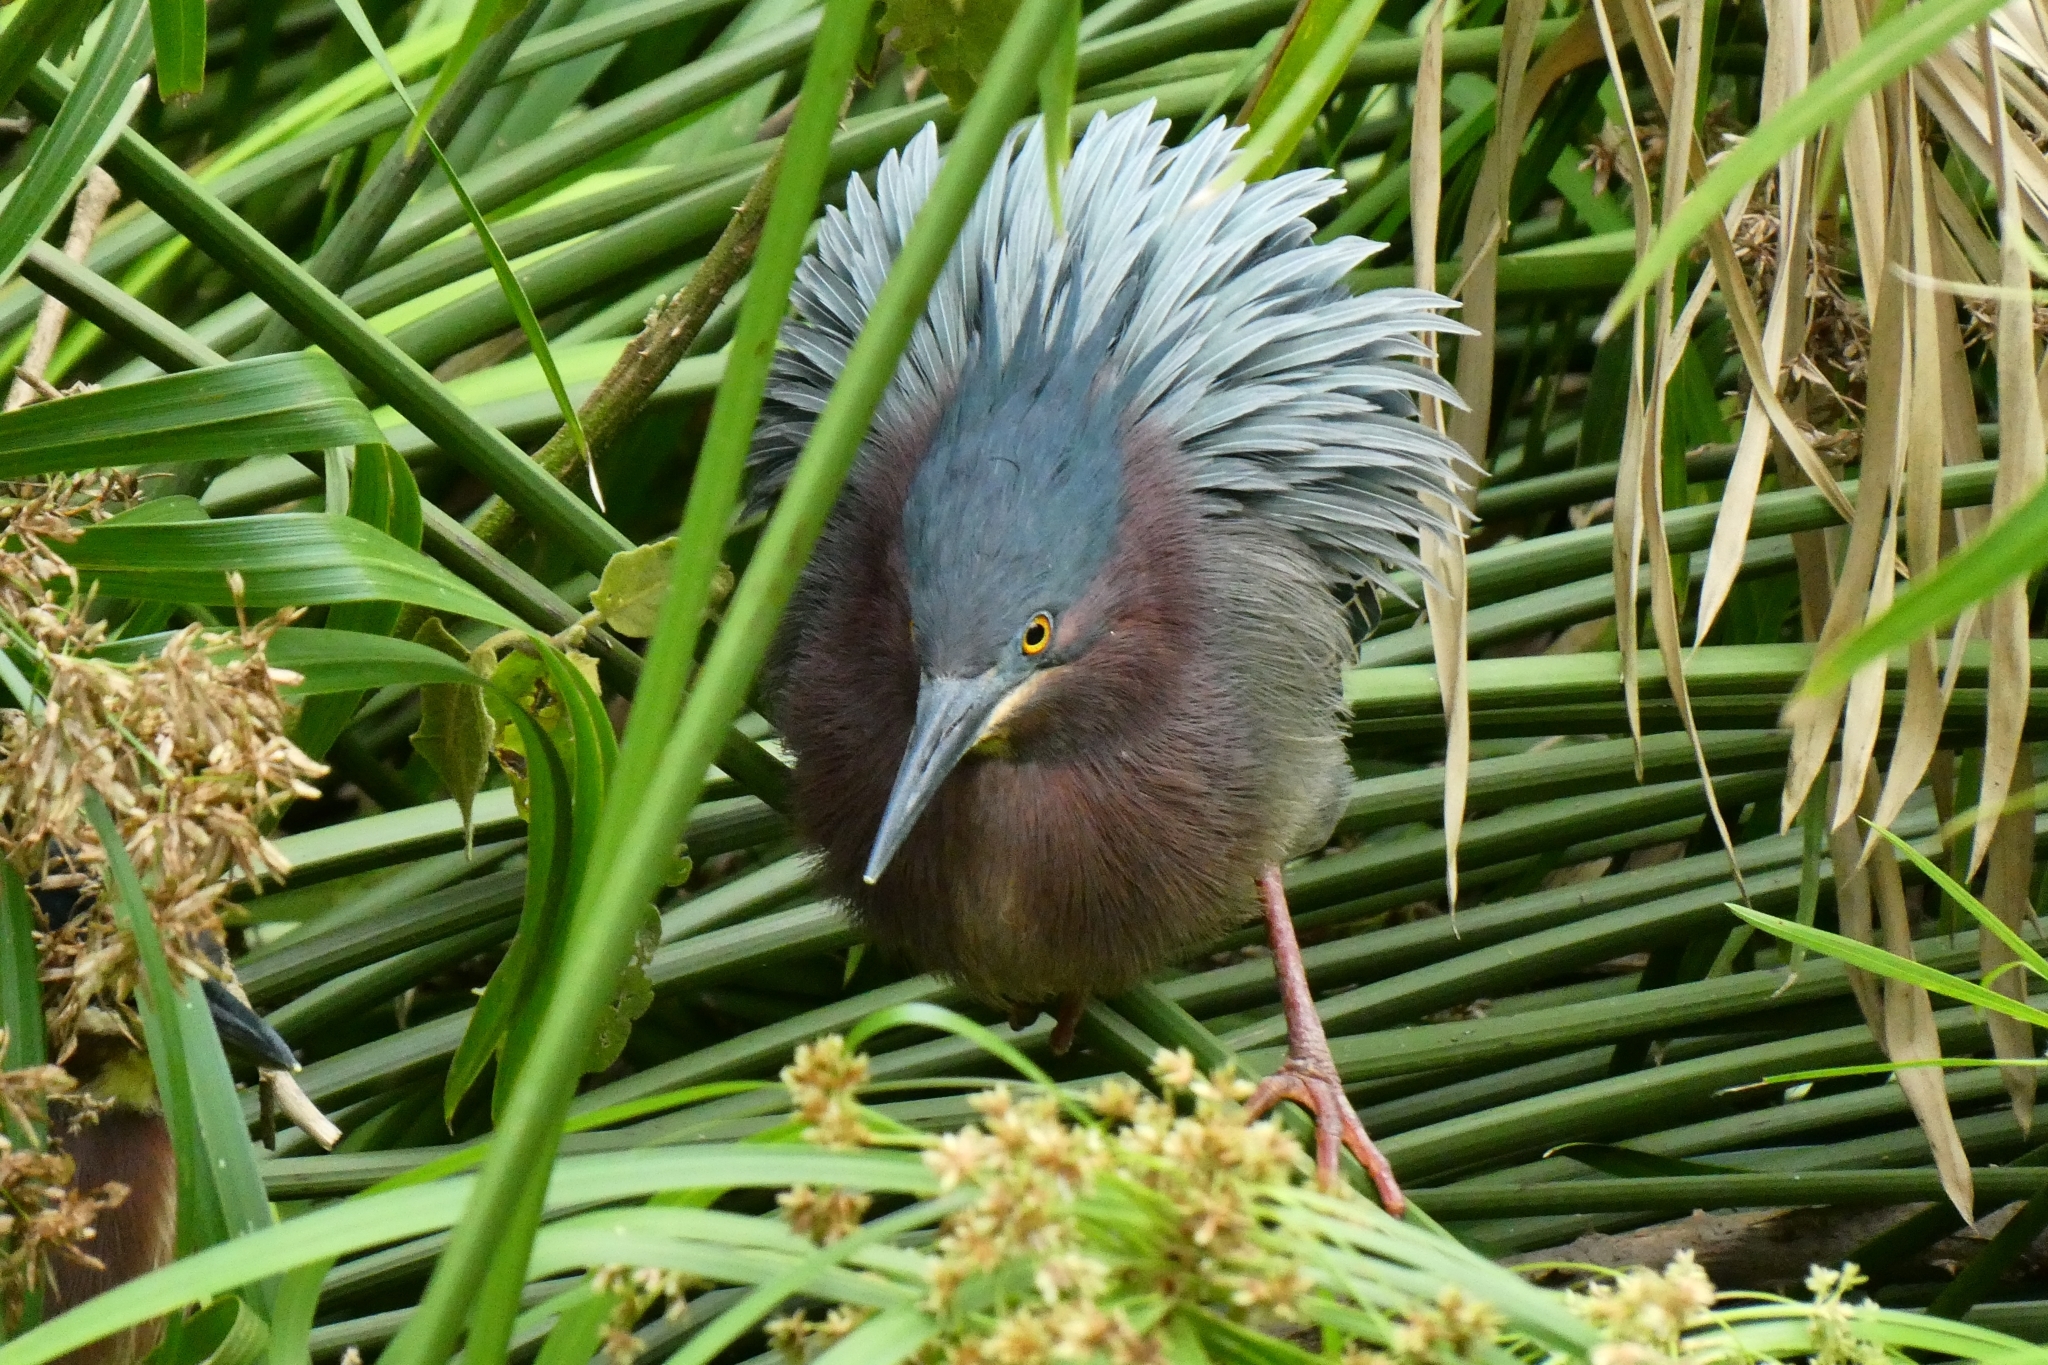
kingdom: Animalia
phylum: Chordata
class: Aves
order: Pelecaniformes
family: Ardeidae
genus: Butorides
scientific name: Butorides virescens
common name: Green heron
